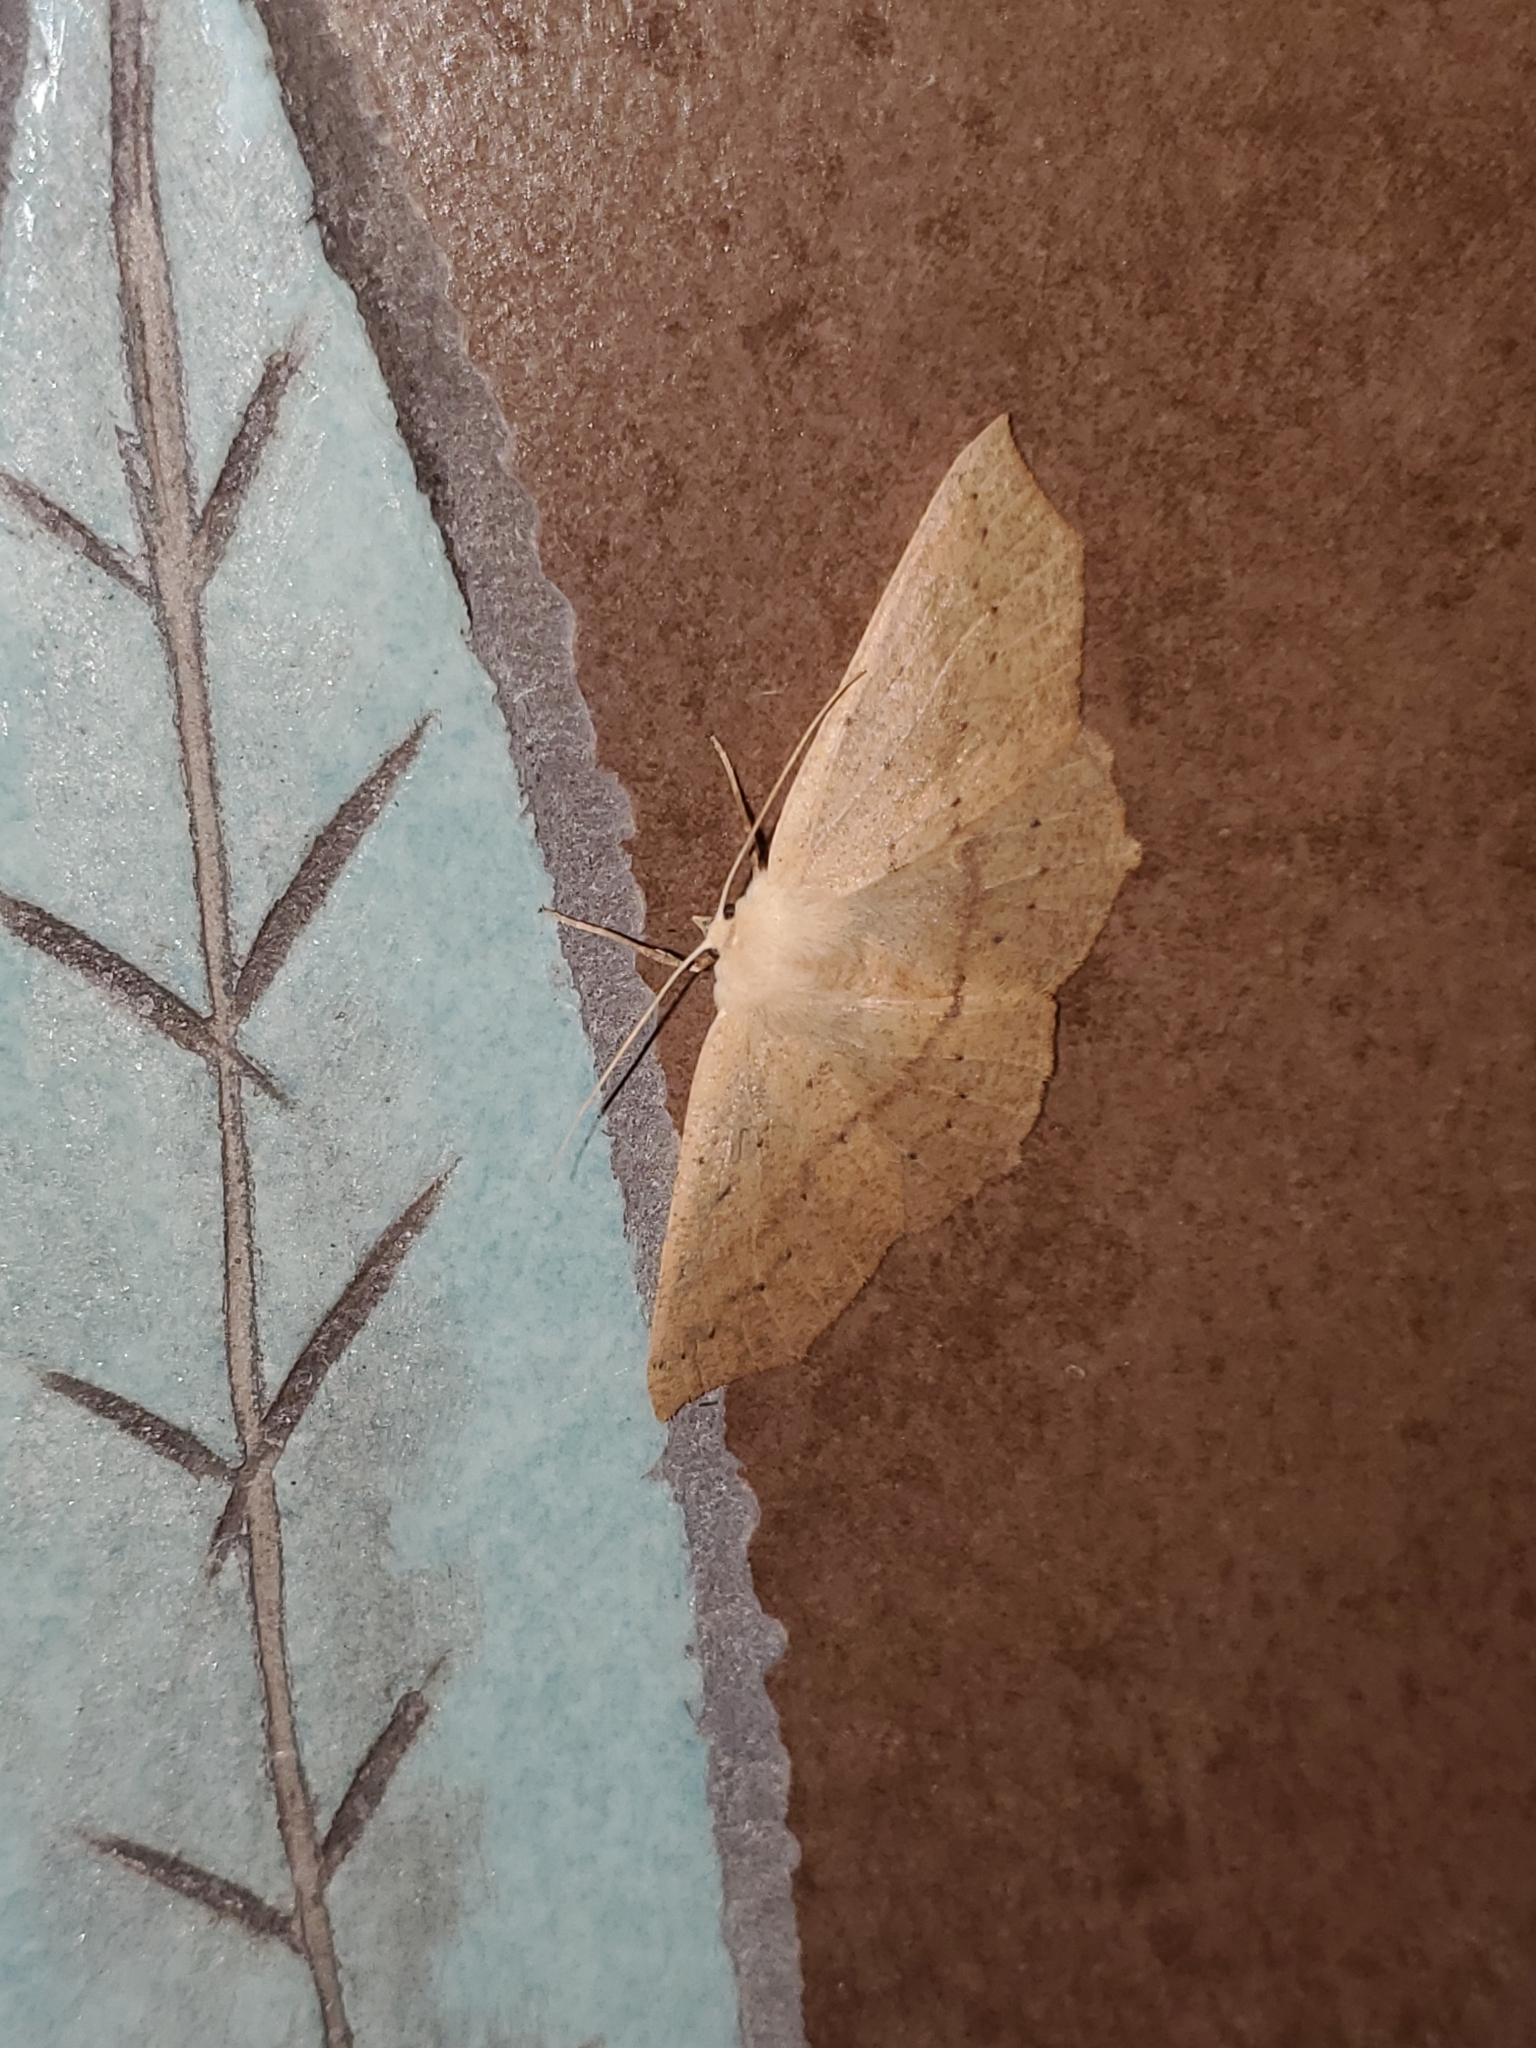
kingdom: Animalia
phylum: Arthropoda
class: Insecta
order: Lepidoptera
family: Geometridae
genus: Sabulodes
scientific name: Sabulodes aegrotata
